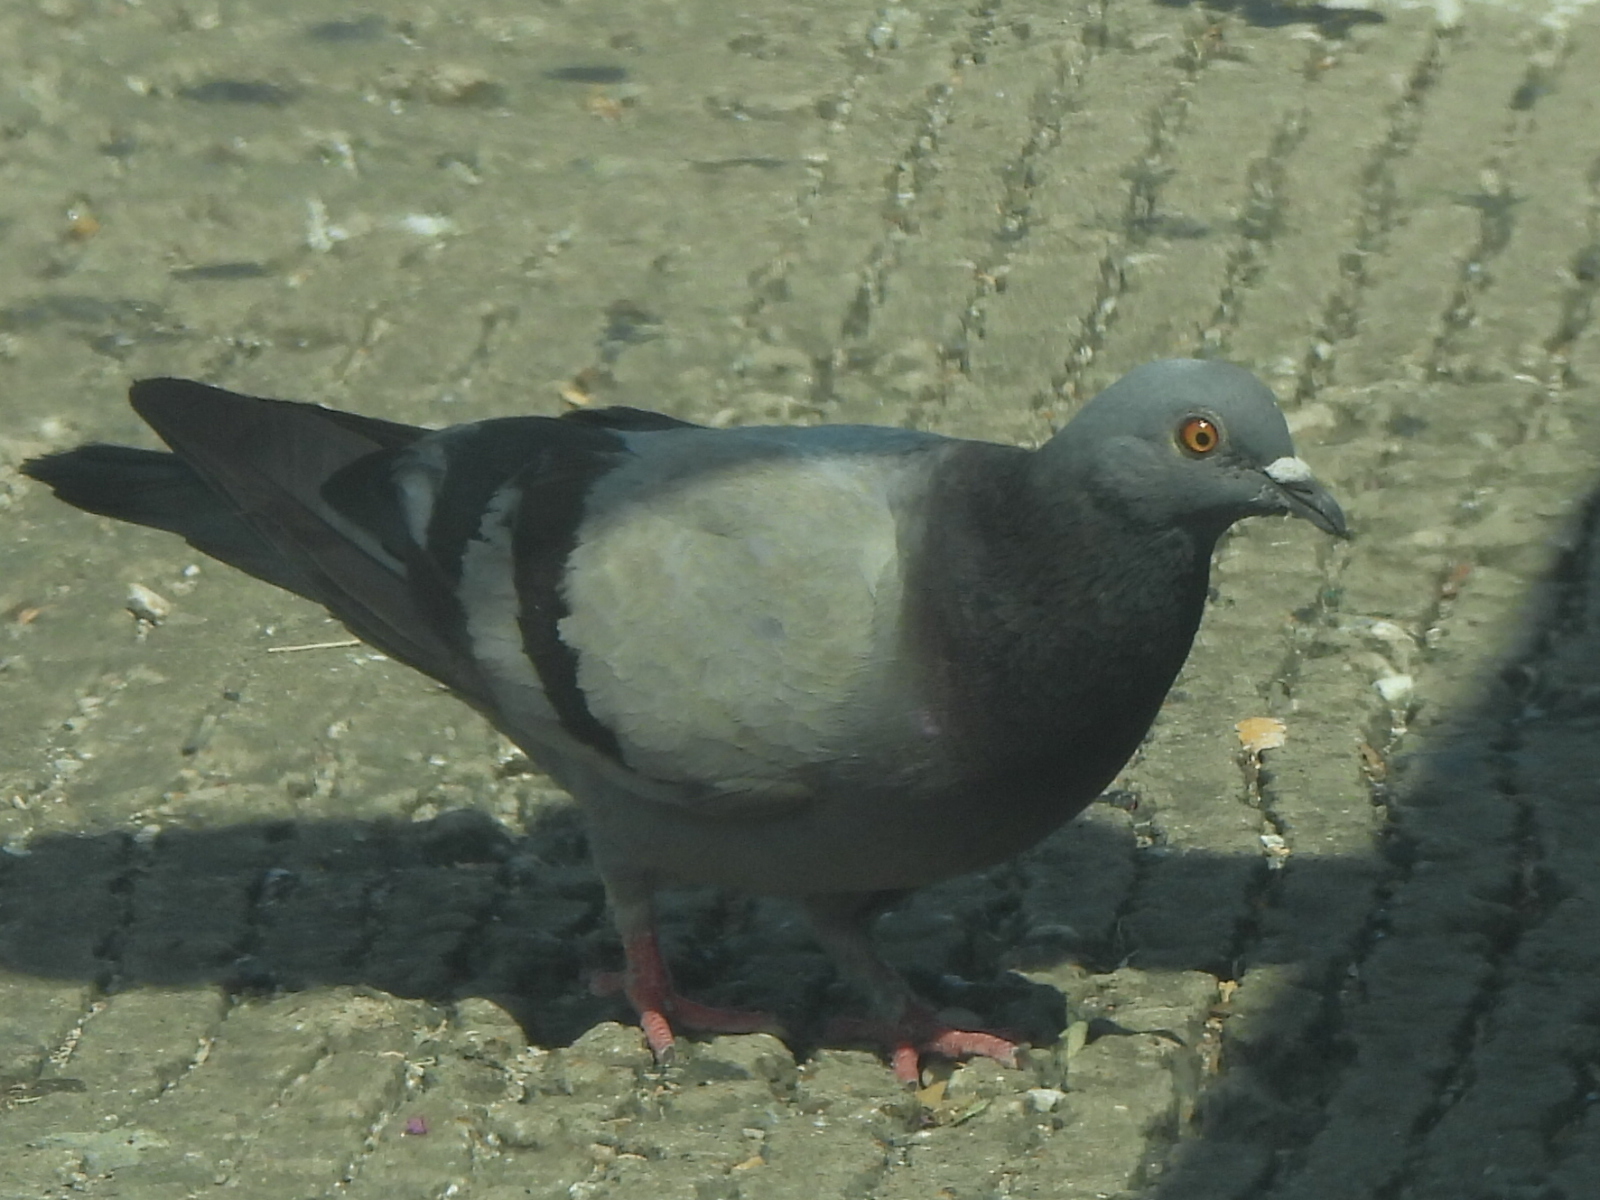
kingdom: Animalia
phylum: Chordata
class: Aves
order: Columbiformes
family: Columbidae
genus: Columba
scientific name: Columba livia
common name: Rock pigeon
